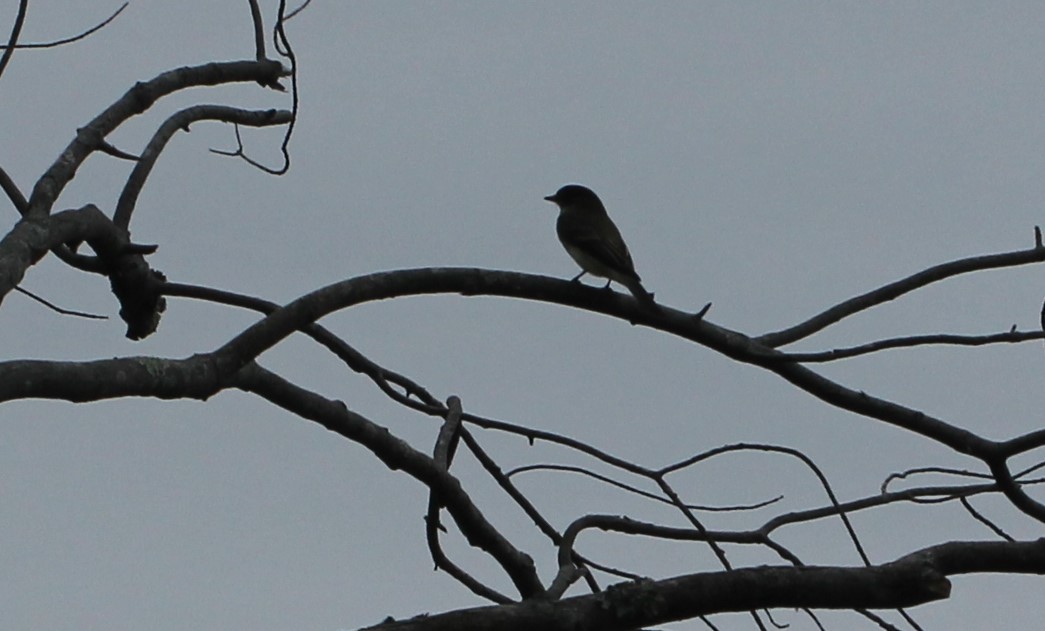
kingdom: Animalia
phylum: Chordata
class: Aves
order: Passeriformes
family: Tyrannidae
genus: Sayornis
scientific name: Sayornis phoebe
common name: Eastern phoebe
